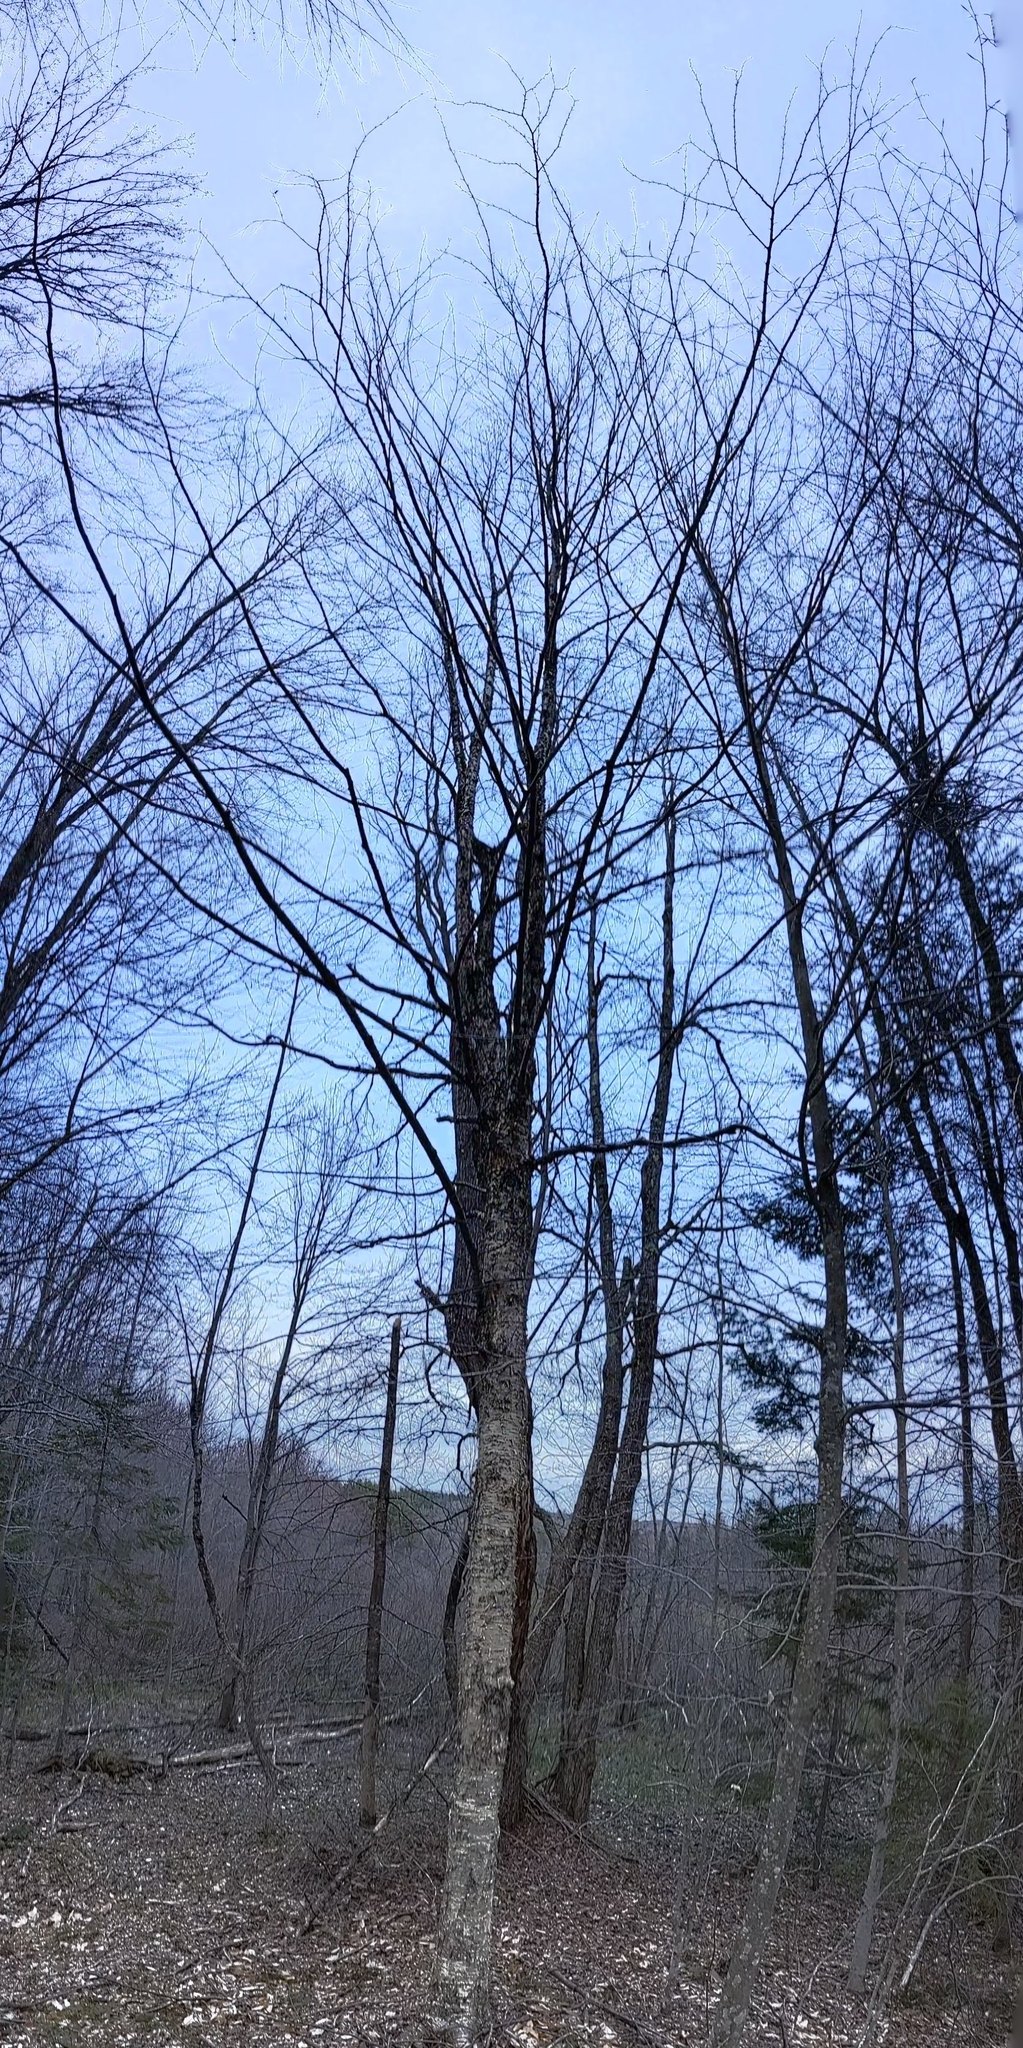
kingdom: Plantae
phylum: Tracheophyta
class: Magnoliopsida
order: Fagales
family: Betulaceae
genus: Betula
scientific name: Betula alleghaniensis
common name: Yellow birch
